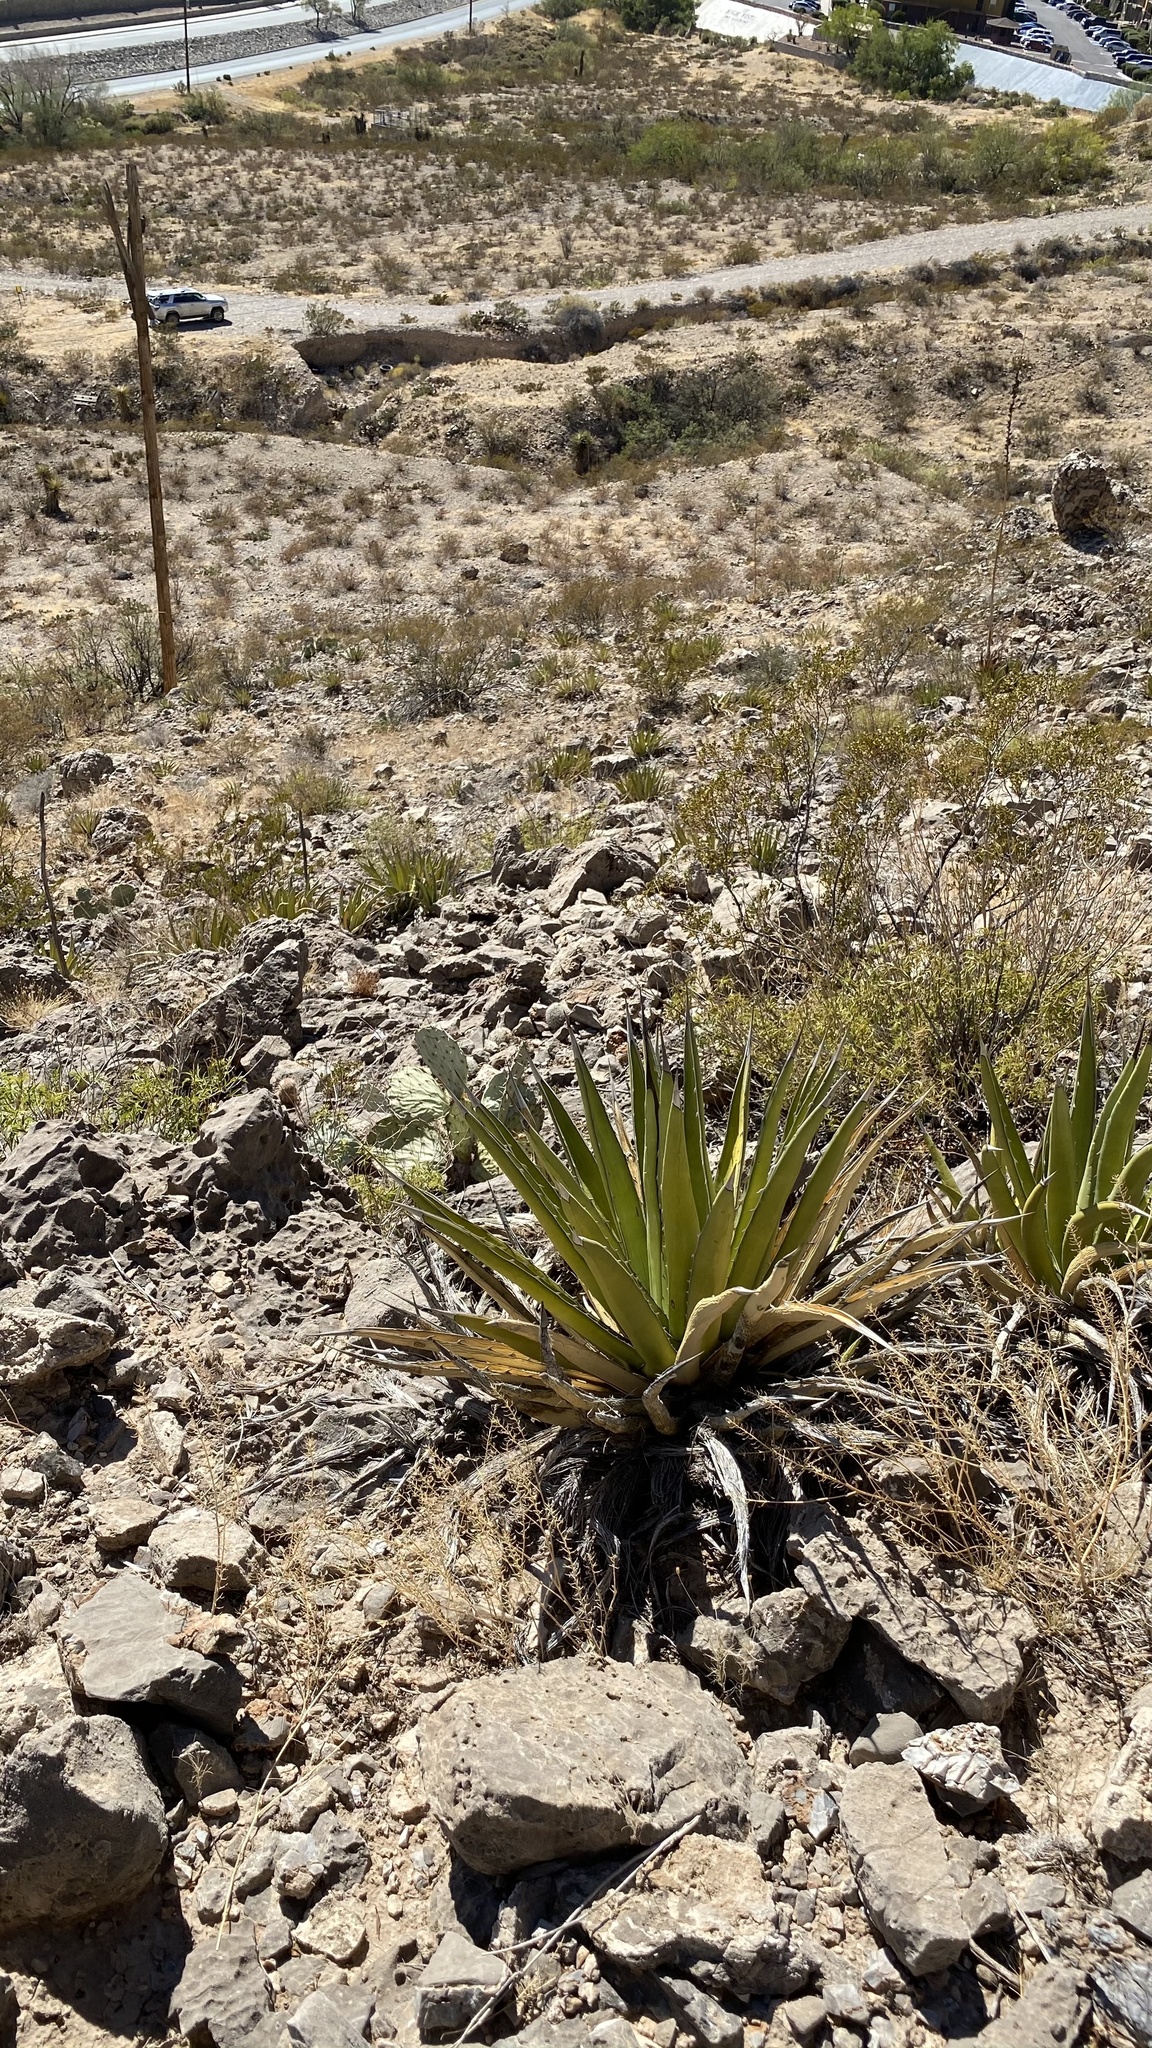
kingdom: Plantae
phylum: Tracheophyta
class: Liliopsida
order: Asparagales
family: Asparagaceae
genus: Agave
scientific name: Agave lechuguilla
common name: Lecheguilla agave
